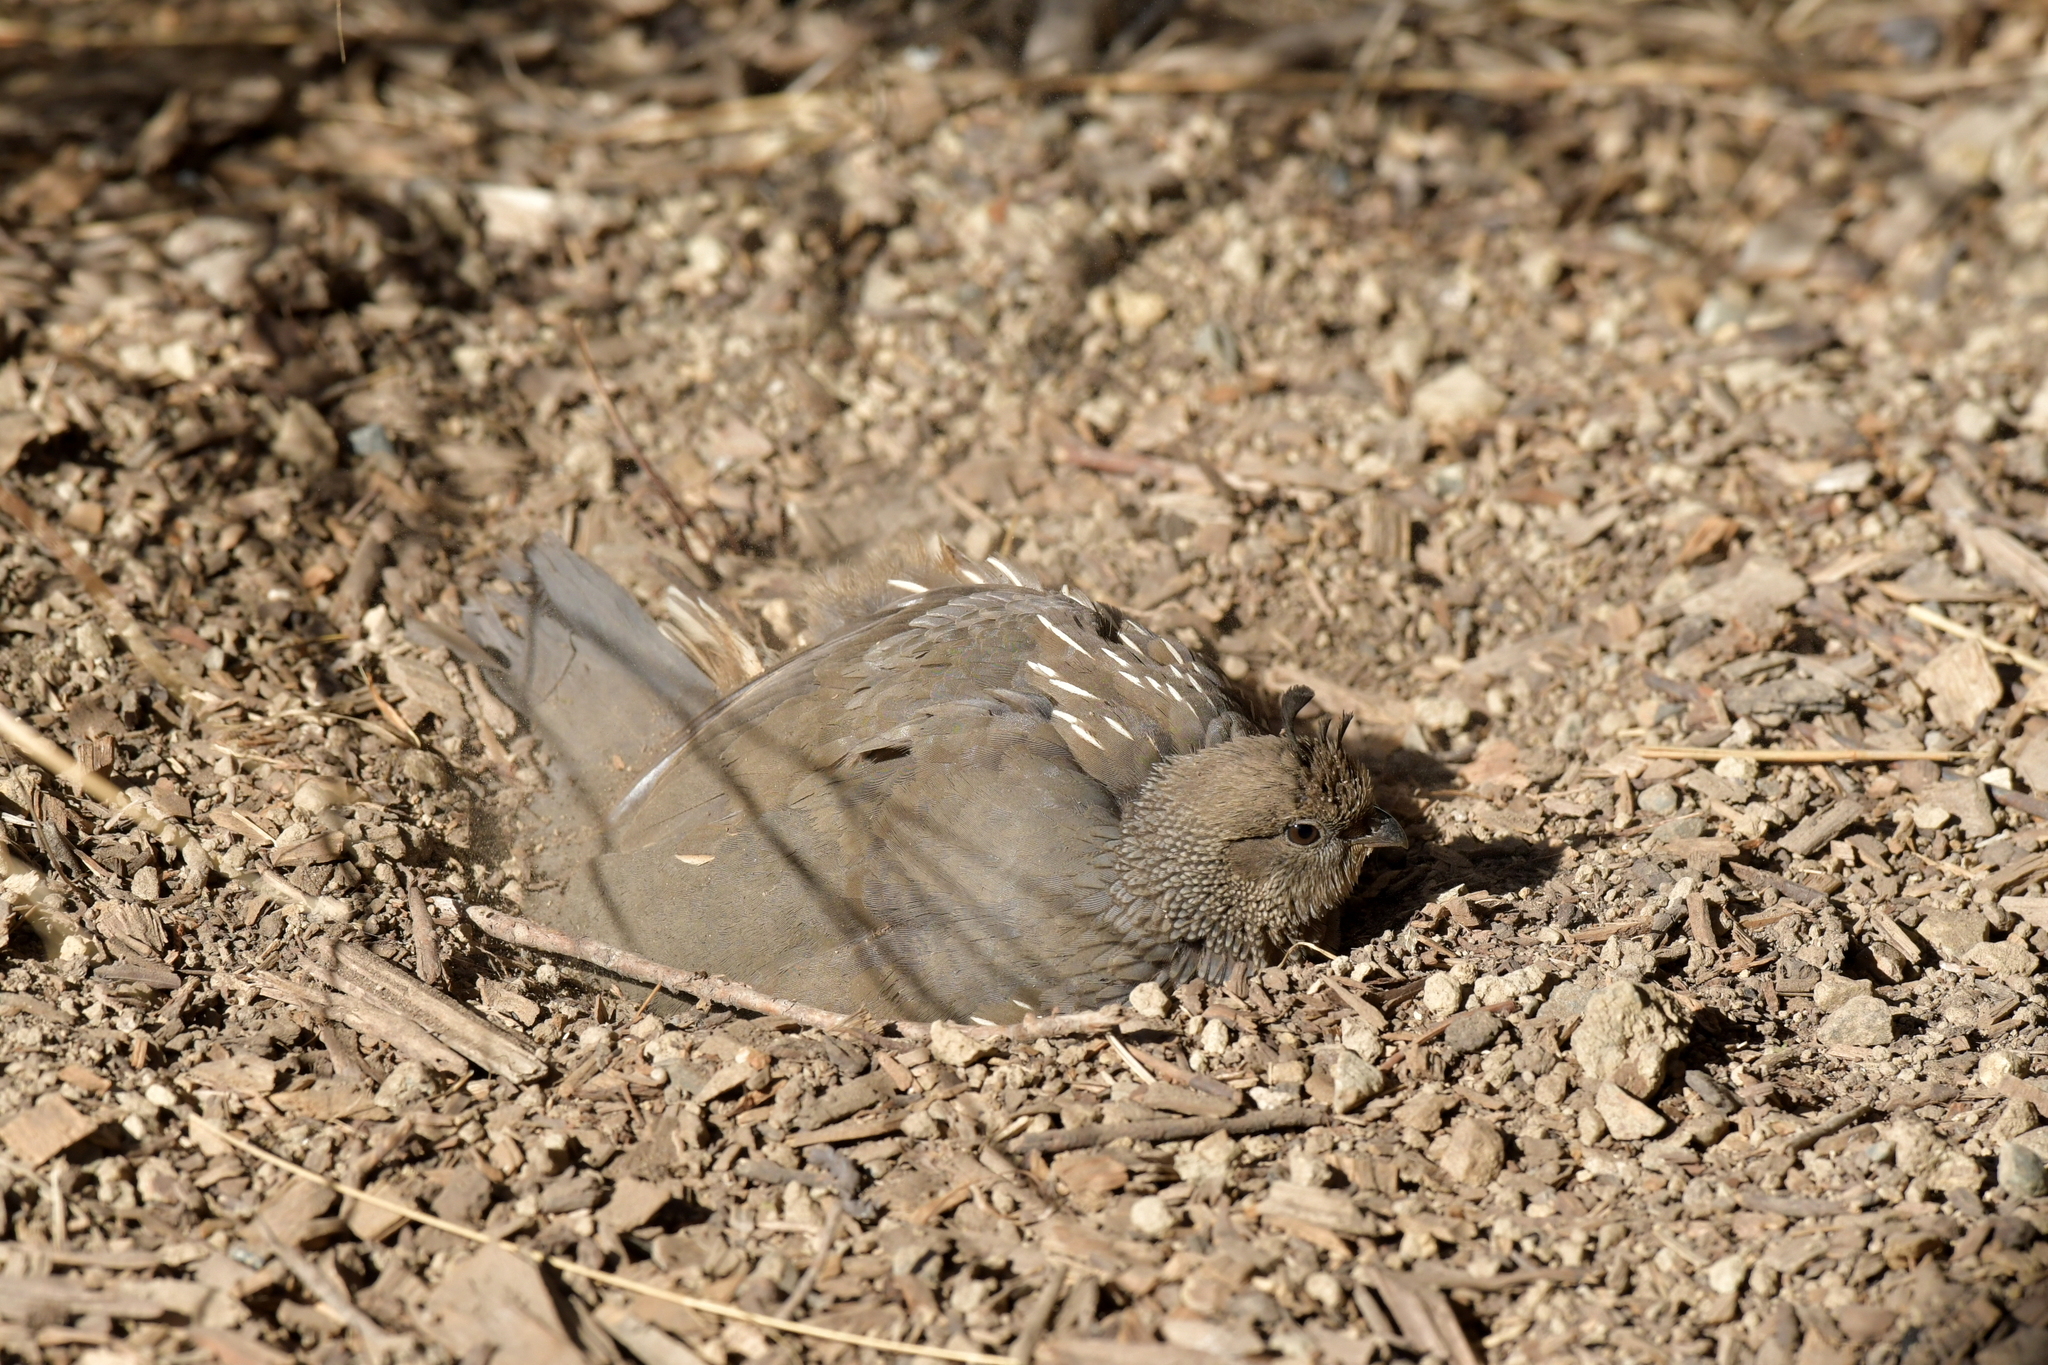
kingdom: Animalia
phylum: Chordata
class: Aves
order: Galliformes
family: Odontophoridae
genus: Callipepla
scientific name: Callipepla californica
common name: California quail
